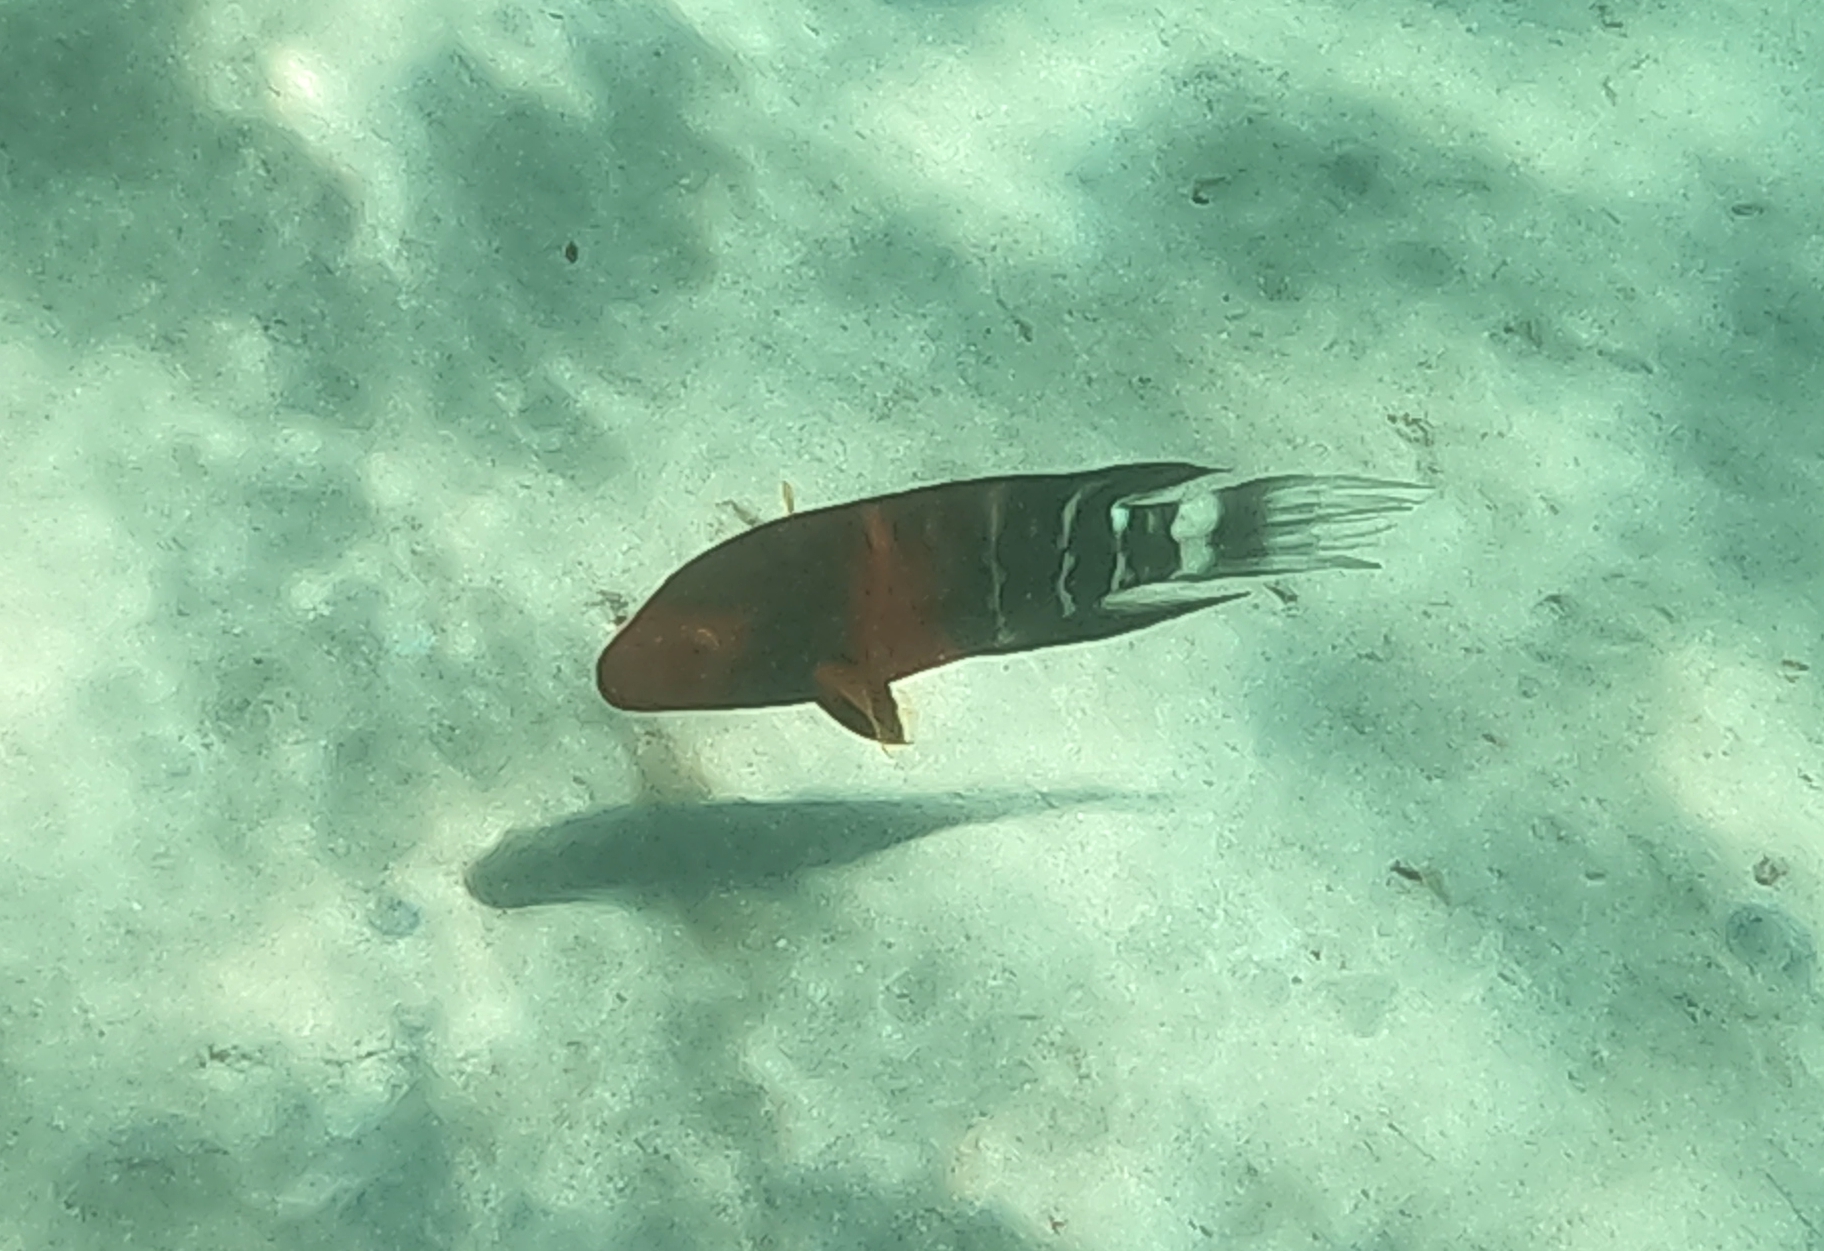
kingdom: Animalia
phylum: Chordata
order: Perciformes
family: Labridae
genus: Cheilinus
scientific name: Cheilinus fasciatus
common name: Red-breasted wrasse
